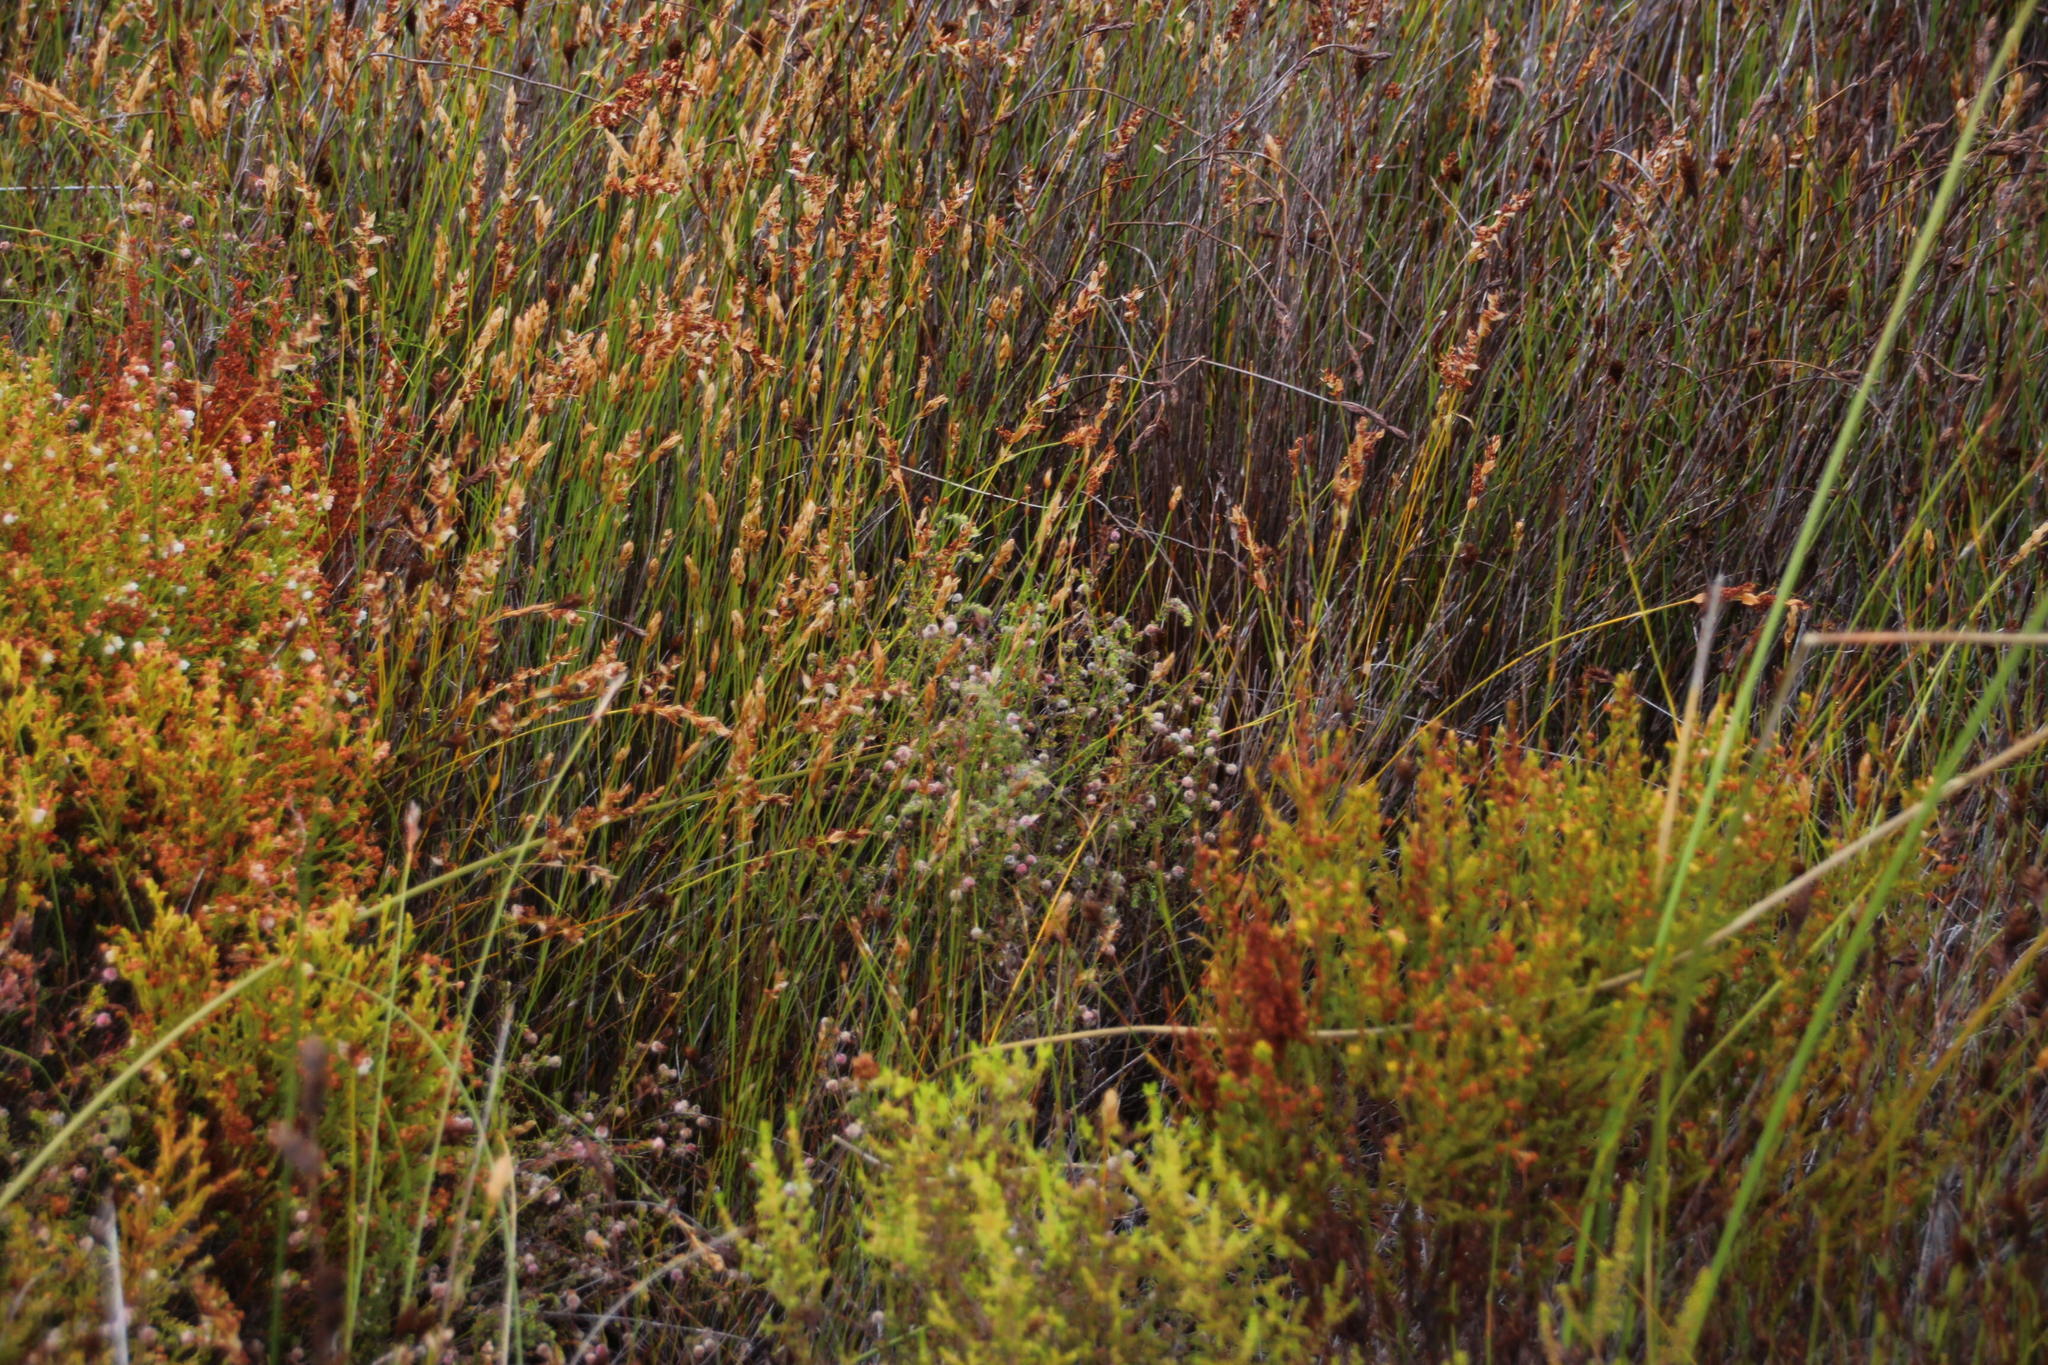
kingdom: Plantae
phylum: Tracheophyta
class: Magnoliopsida
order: Ericales
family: Ericaceae
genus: Erica
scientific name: Erica bruniades
